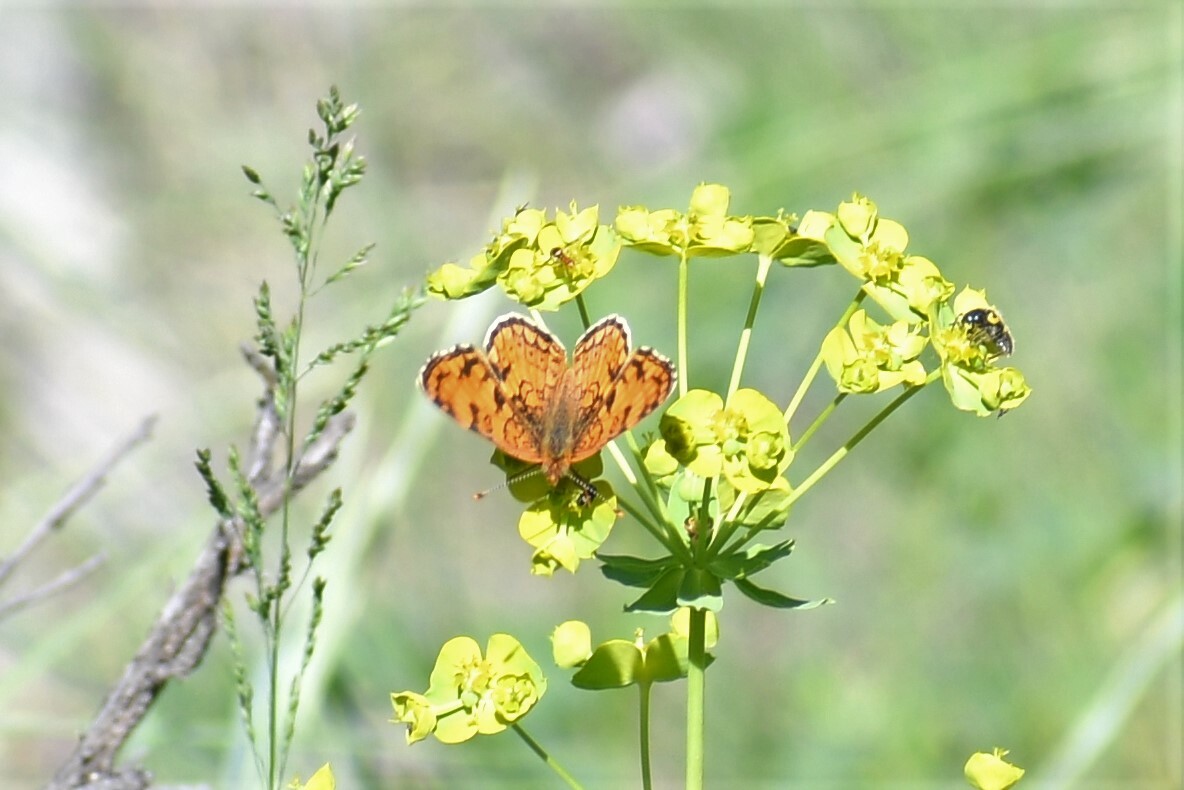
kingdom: Animalia
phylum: Arthropoda
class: Insecta
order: Lepidoptera
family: Nymphalidae
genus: Phyciodes
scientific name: Phyciodes pallida
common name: Pale crescent
